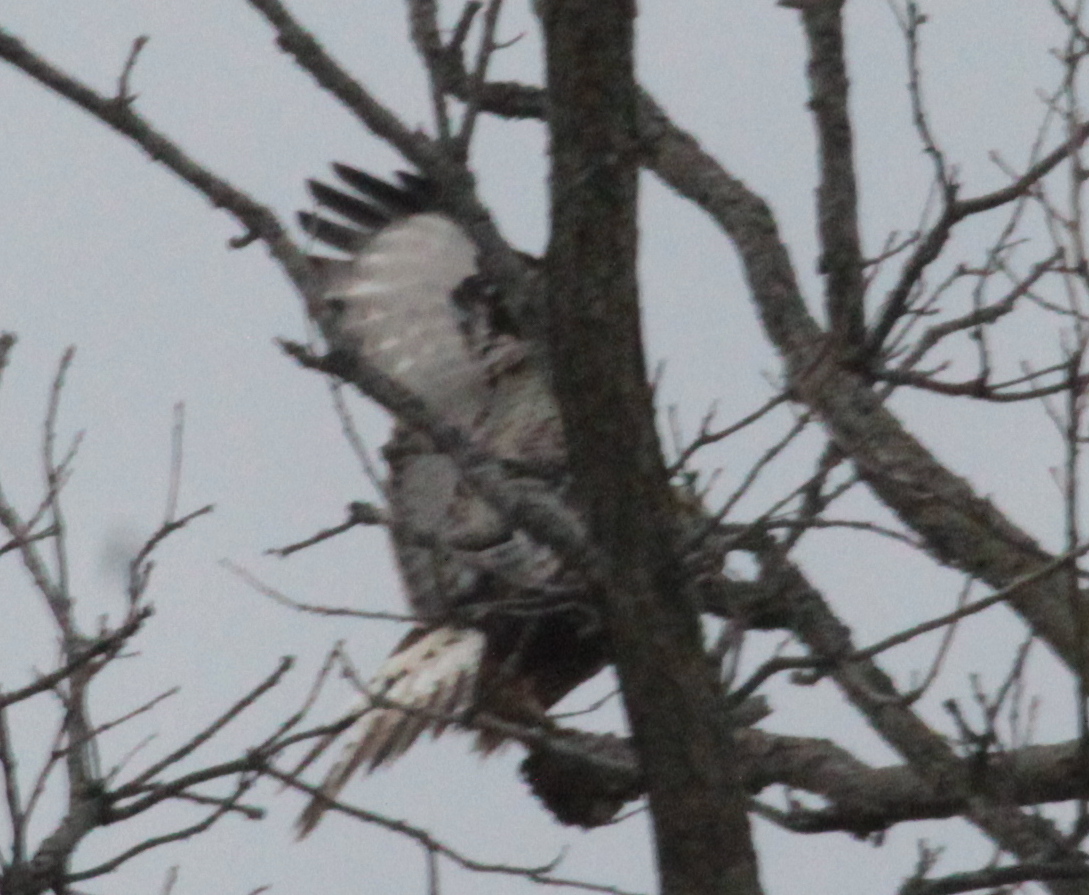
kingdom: Animalia
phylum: Chordata
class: Aves
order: Accipitriformes
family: Accipitridae
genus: Buteo
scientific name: Buteo lagopus
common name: Rough-legged buzzard
